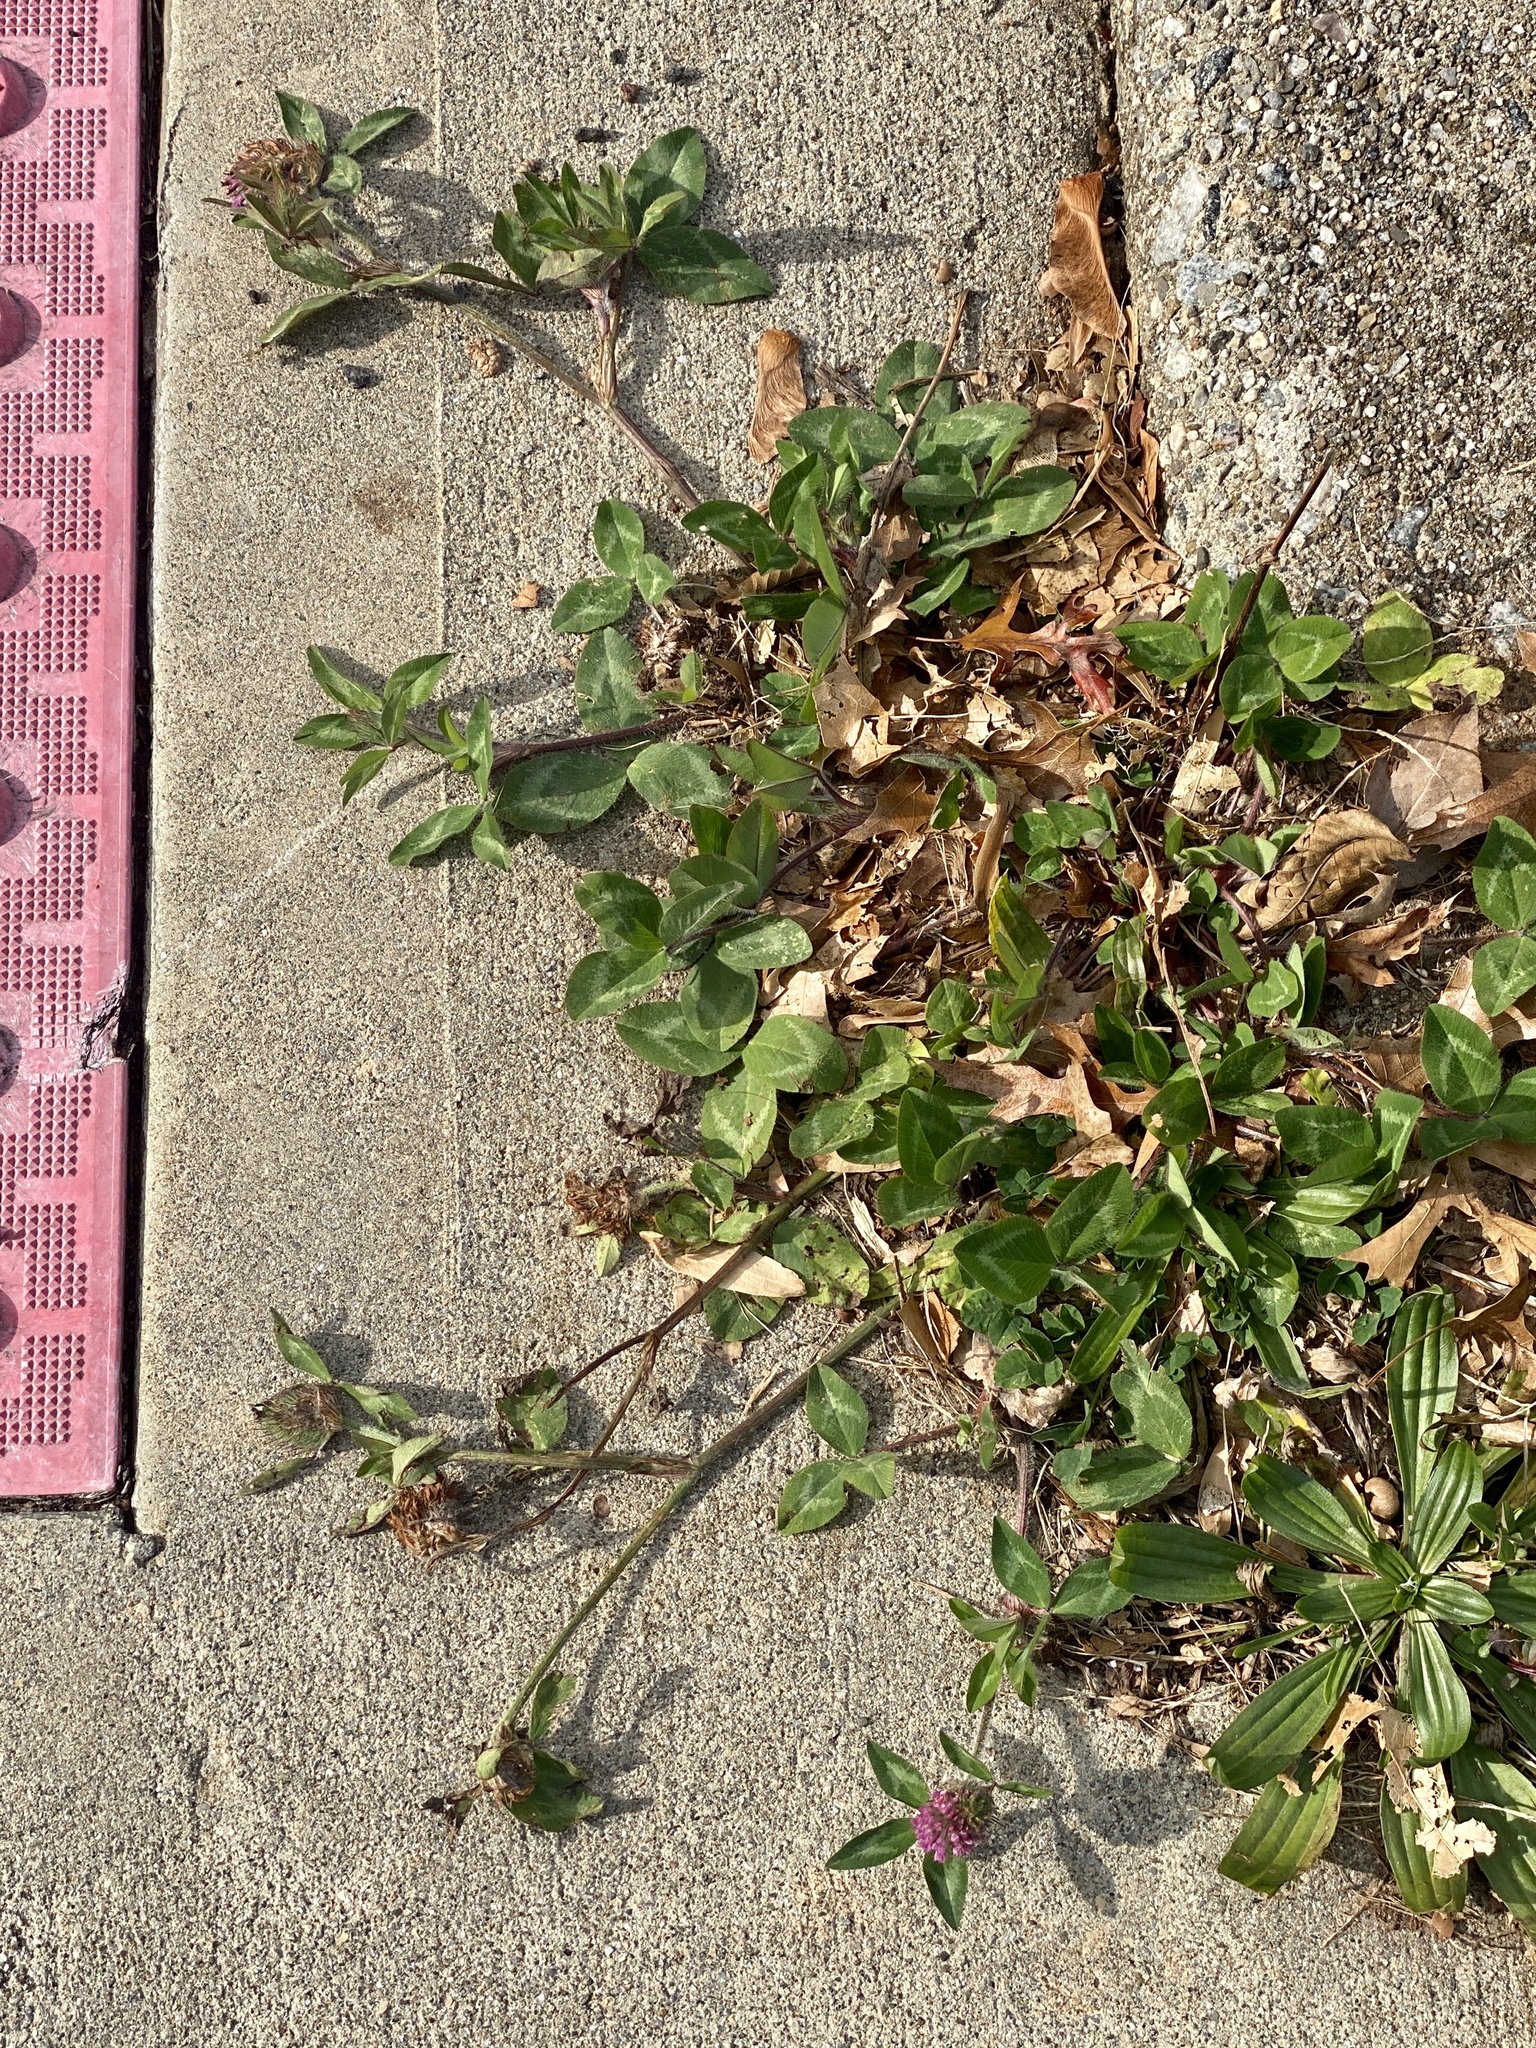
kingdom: Plantae
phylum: Tracheophyta
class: Magnoliopsida
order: Fabales
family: Fabaceae
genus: Trifolium
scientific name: Trifolium pratense
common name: Red clover
